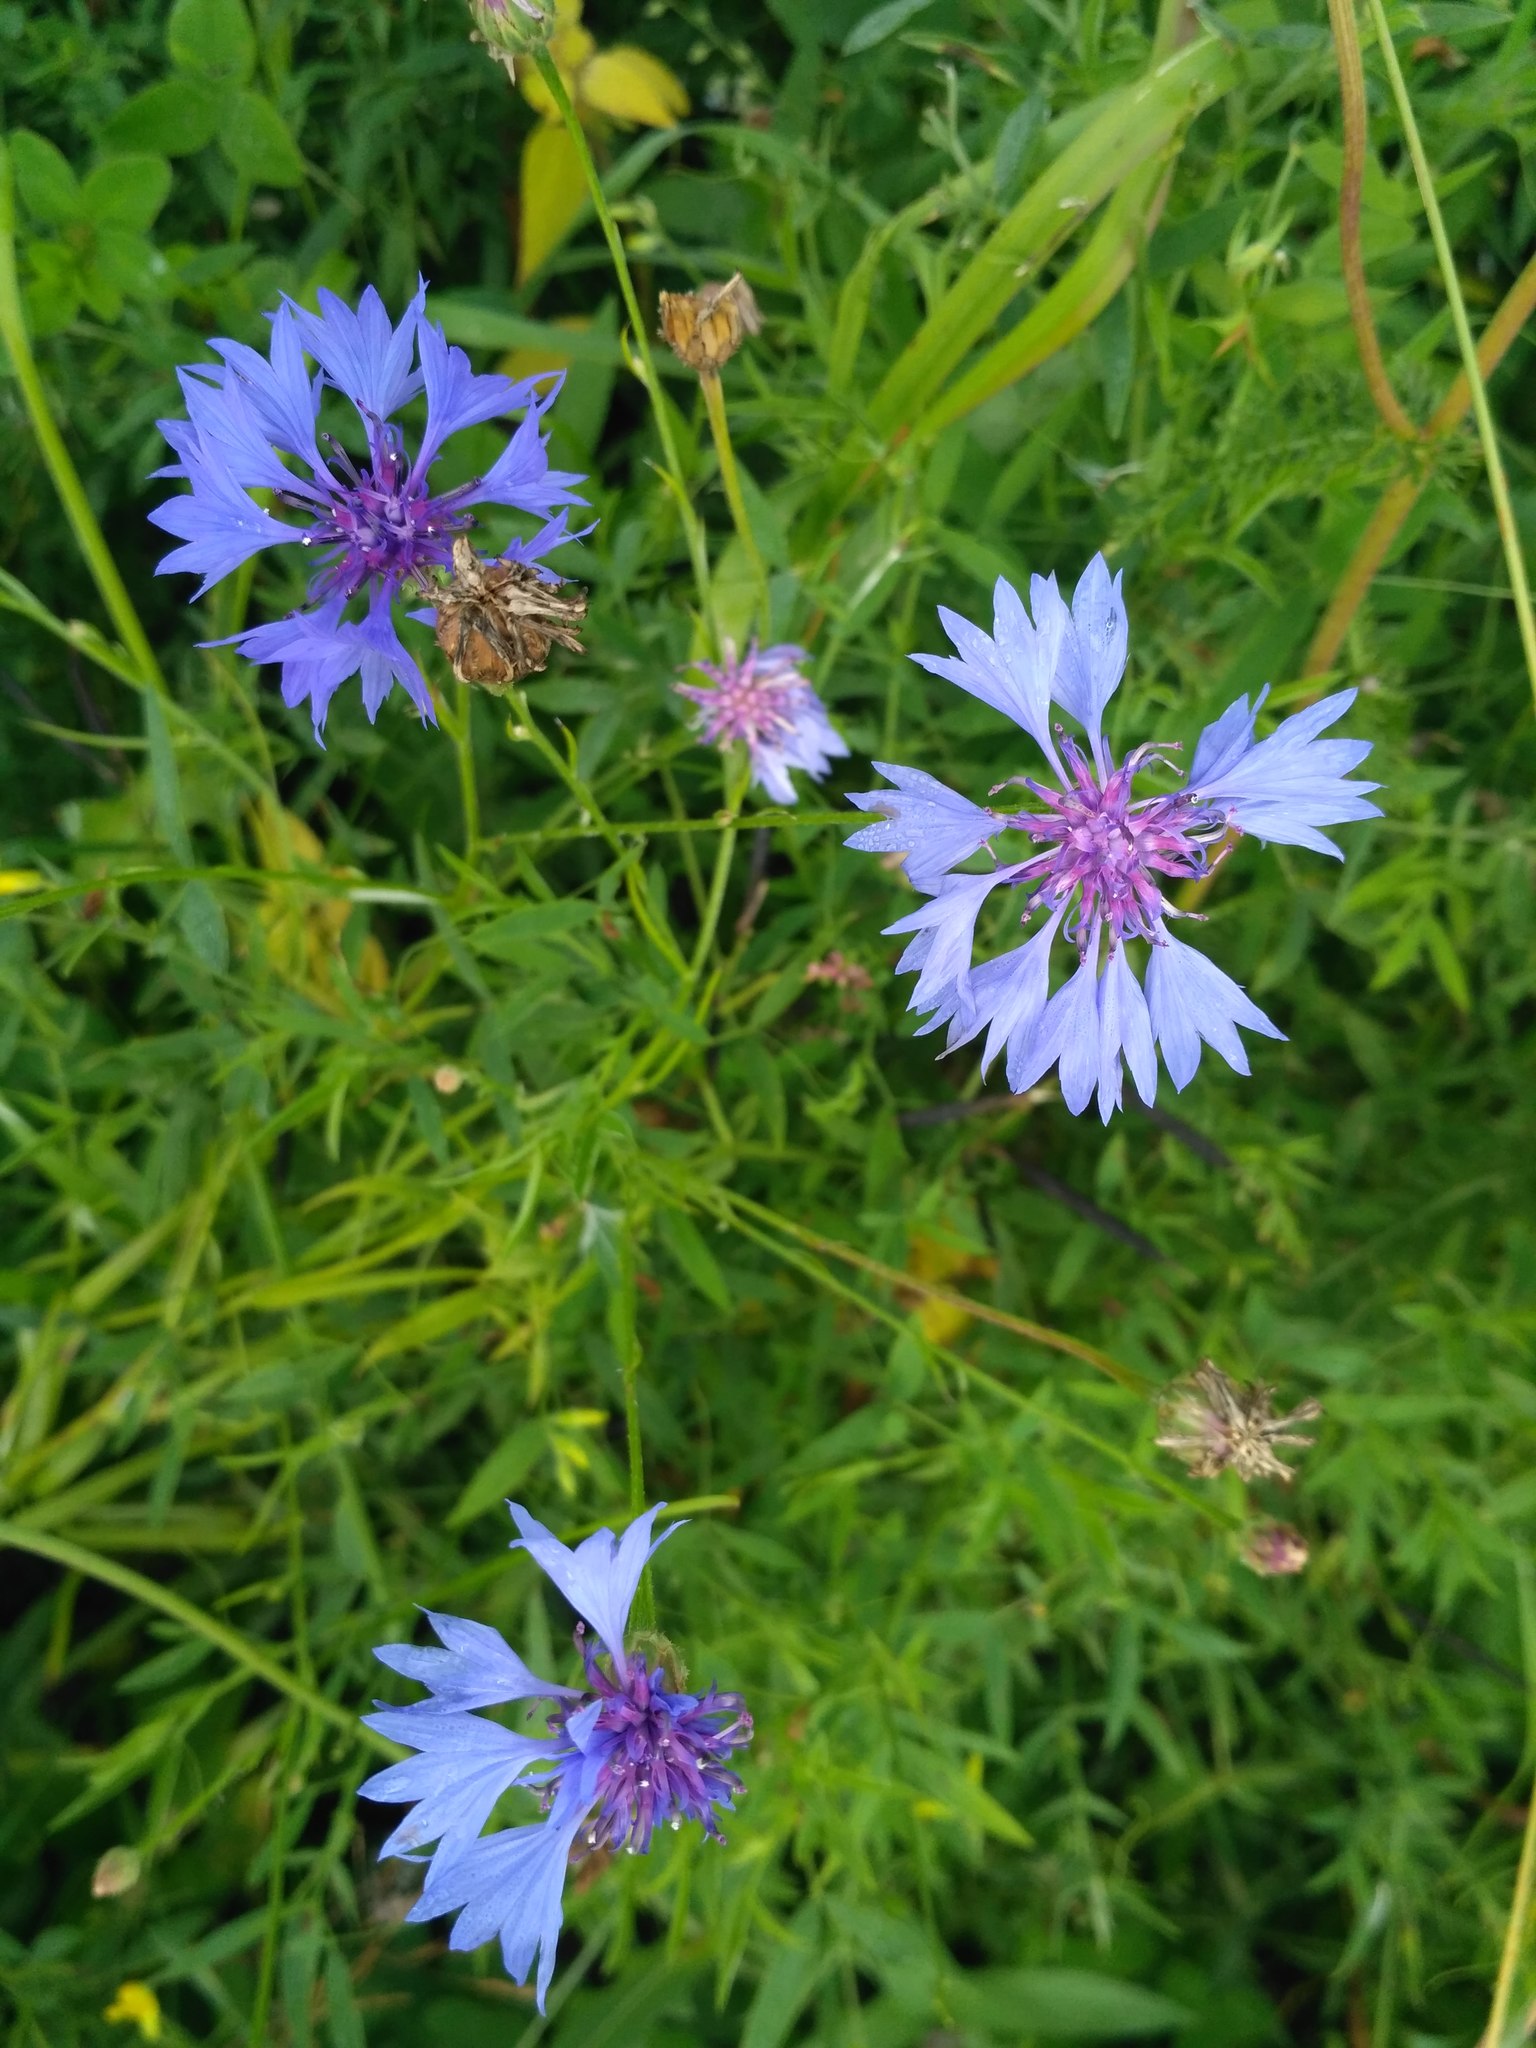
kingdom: Plantae
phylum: Tracheophyta
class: Magnoliopsida
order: Asterales
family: Asteraceae
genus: Centaurea
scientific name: Centaurea cyanus
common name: Cornflower
